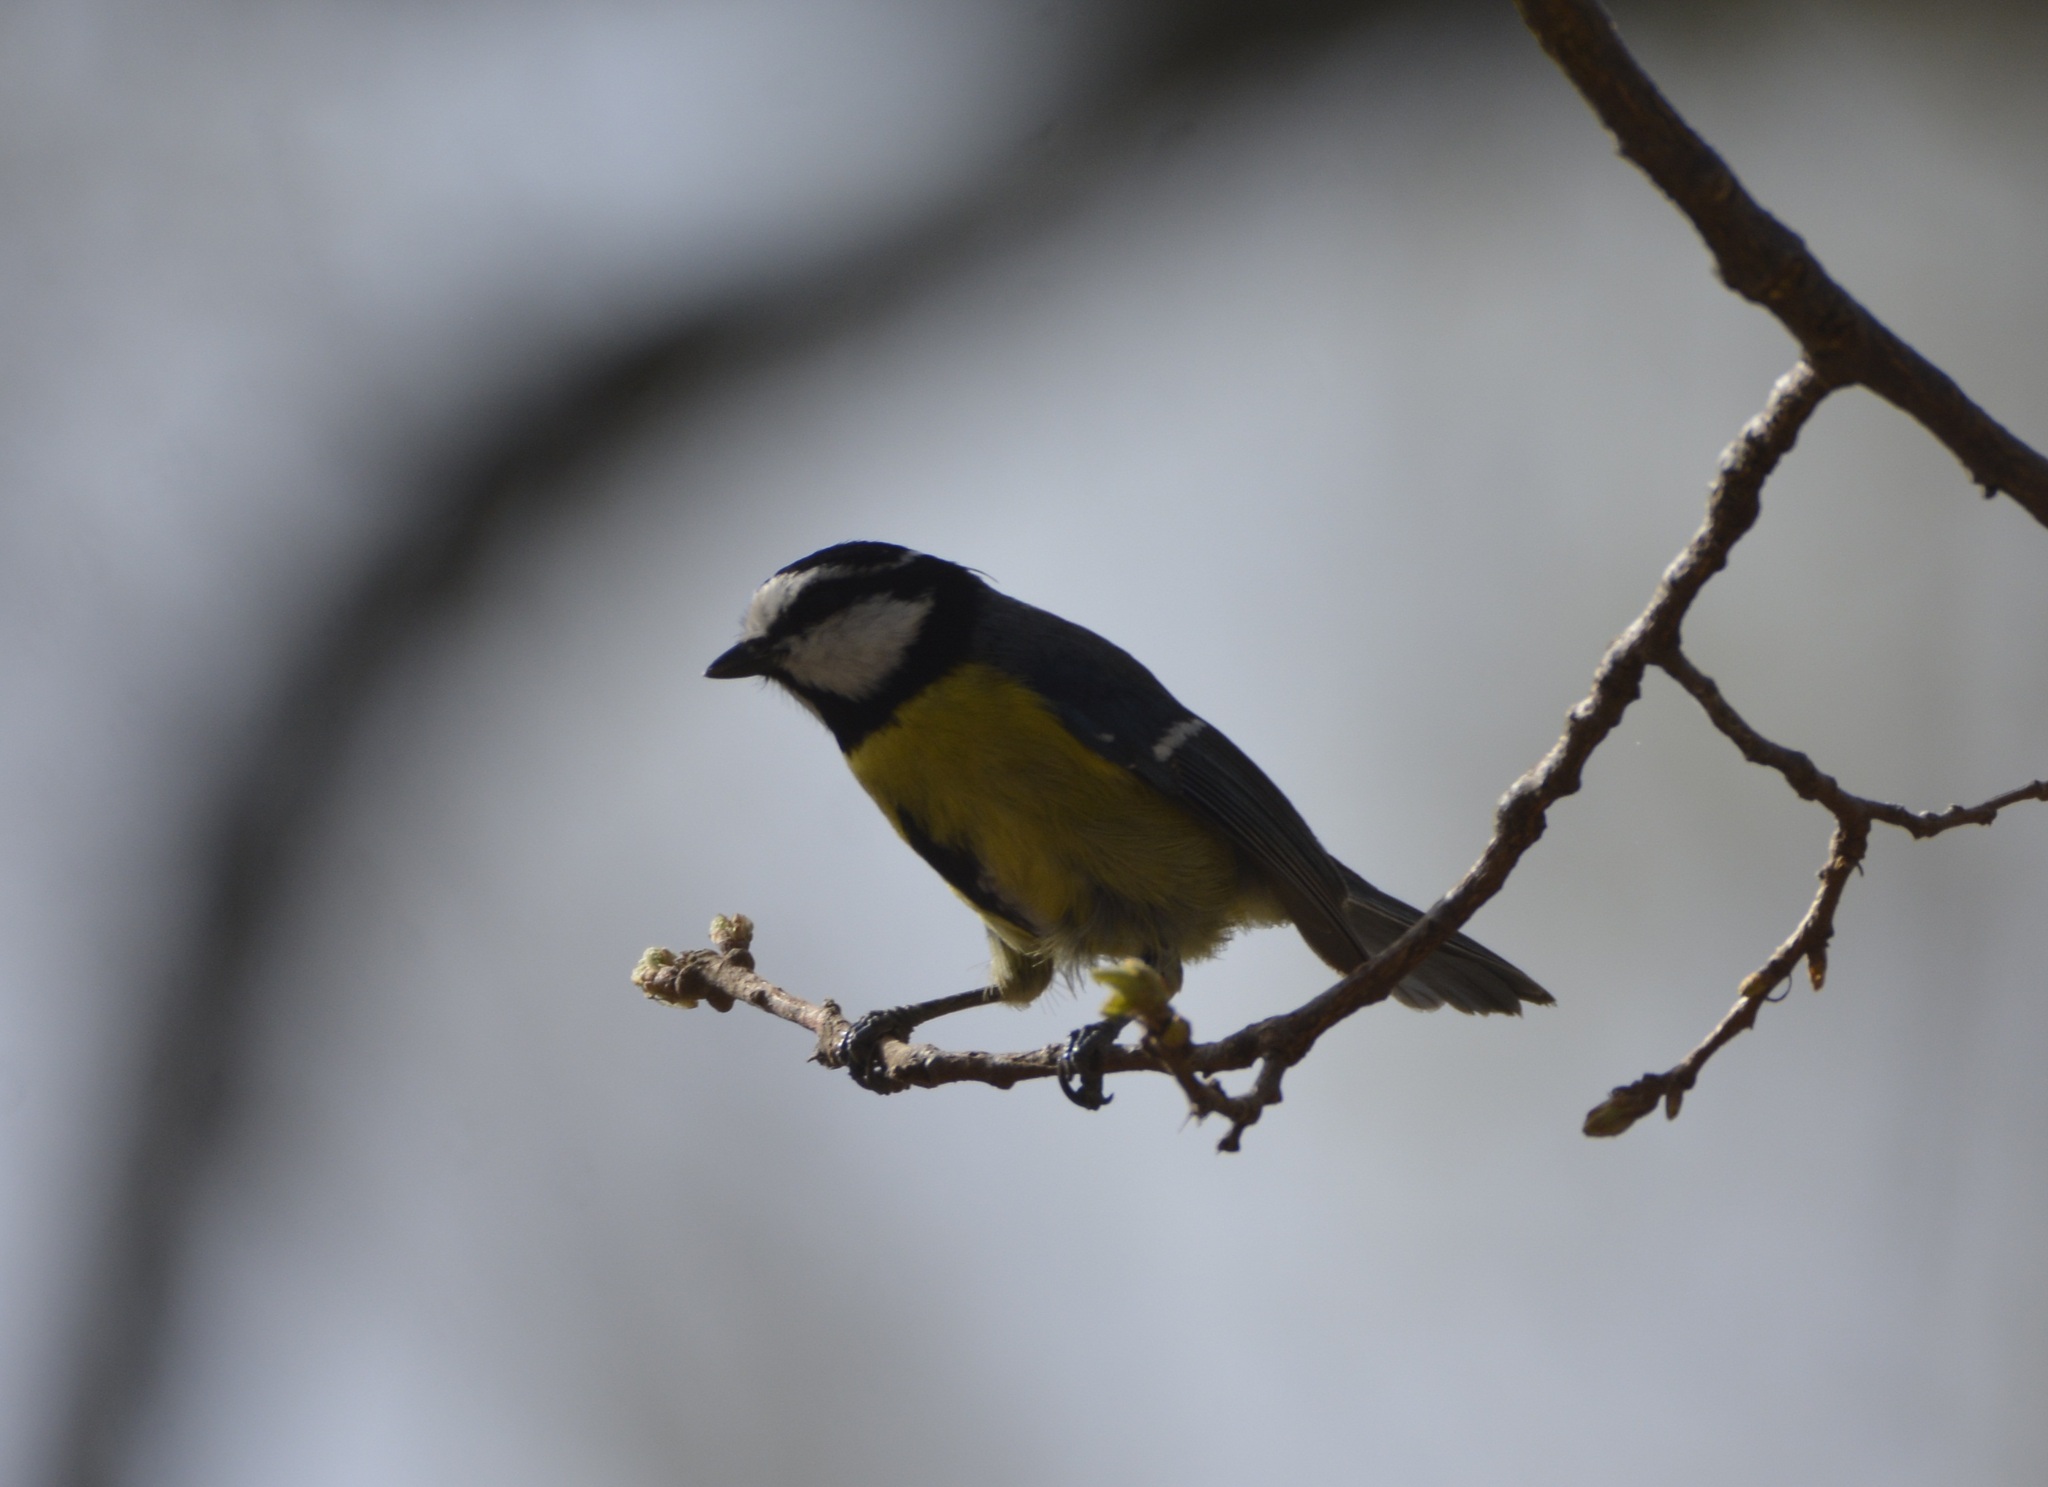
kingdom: Animalia
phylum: Chordata
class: Aves
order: Passeriformes
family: Paridae
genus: Cyanistes
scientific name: Cyanistes teneriffae
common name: African blue tit
